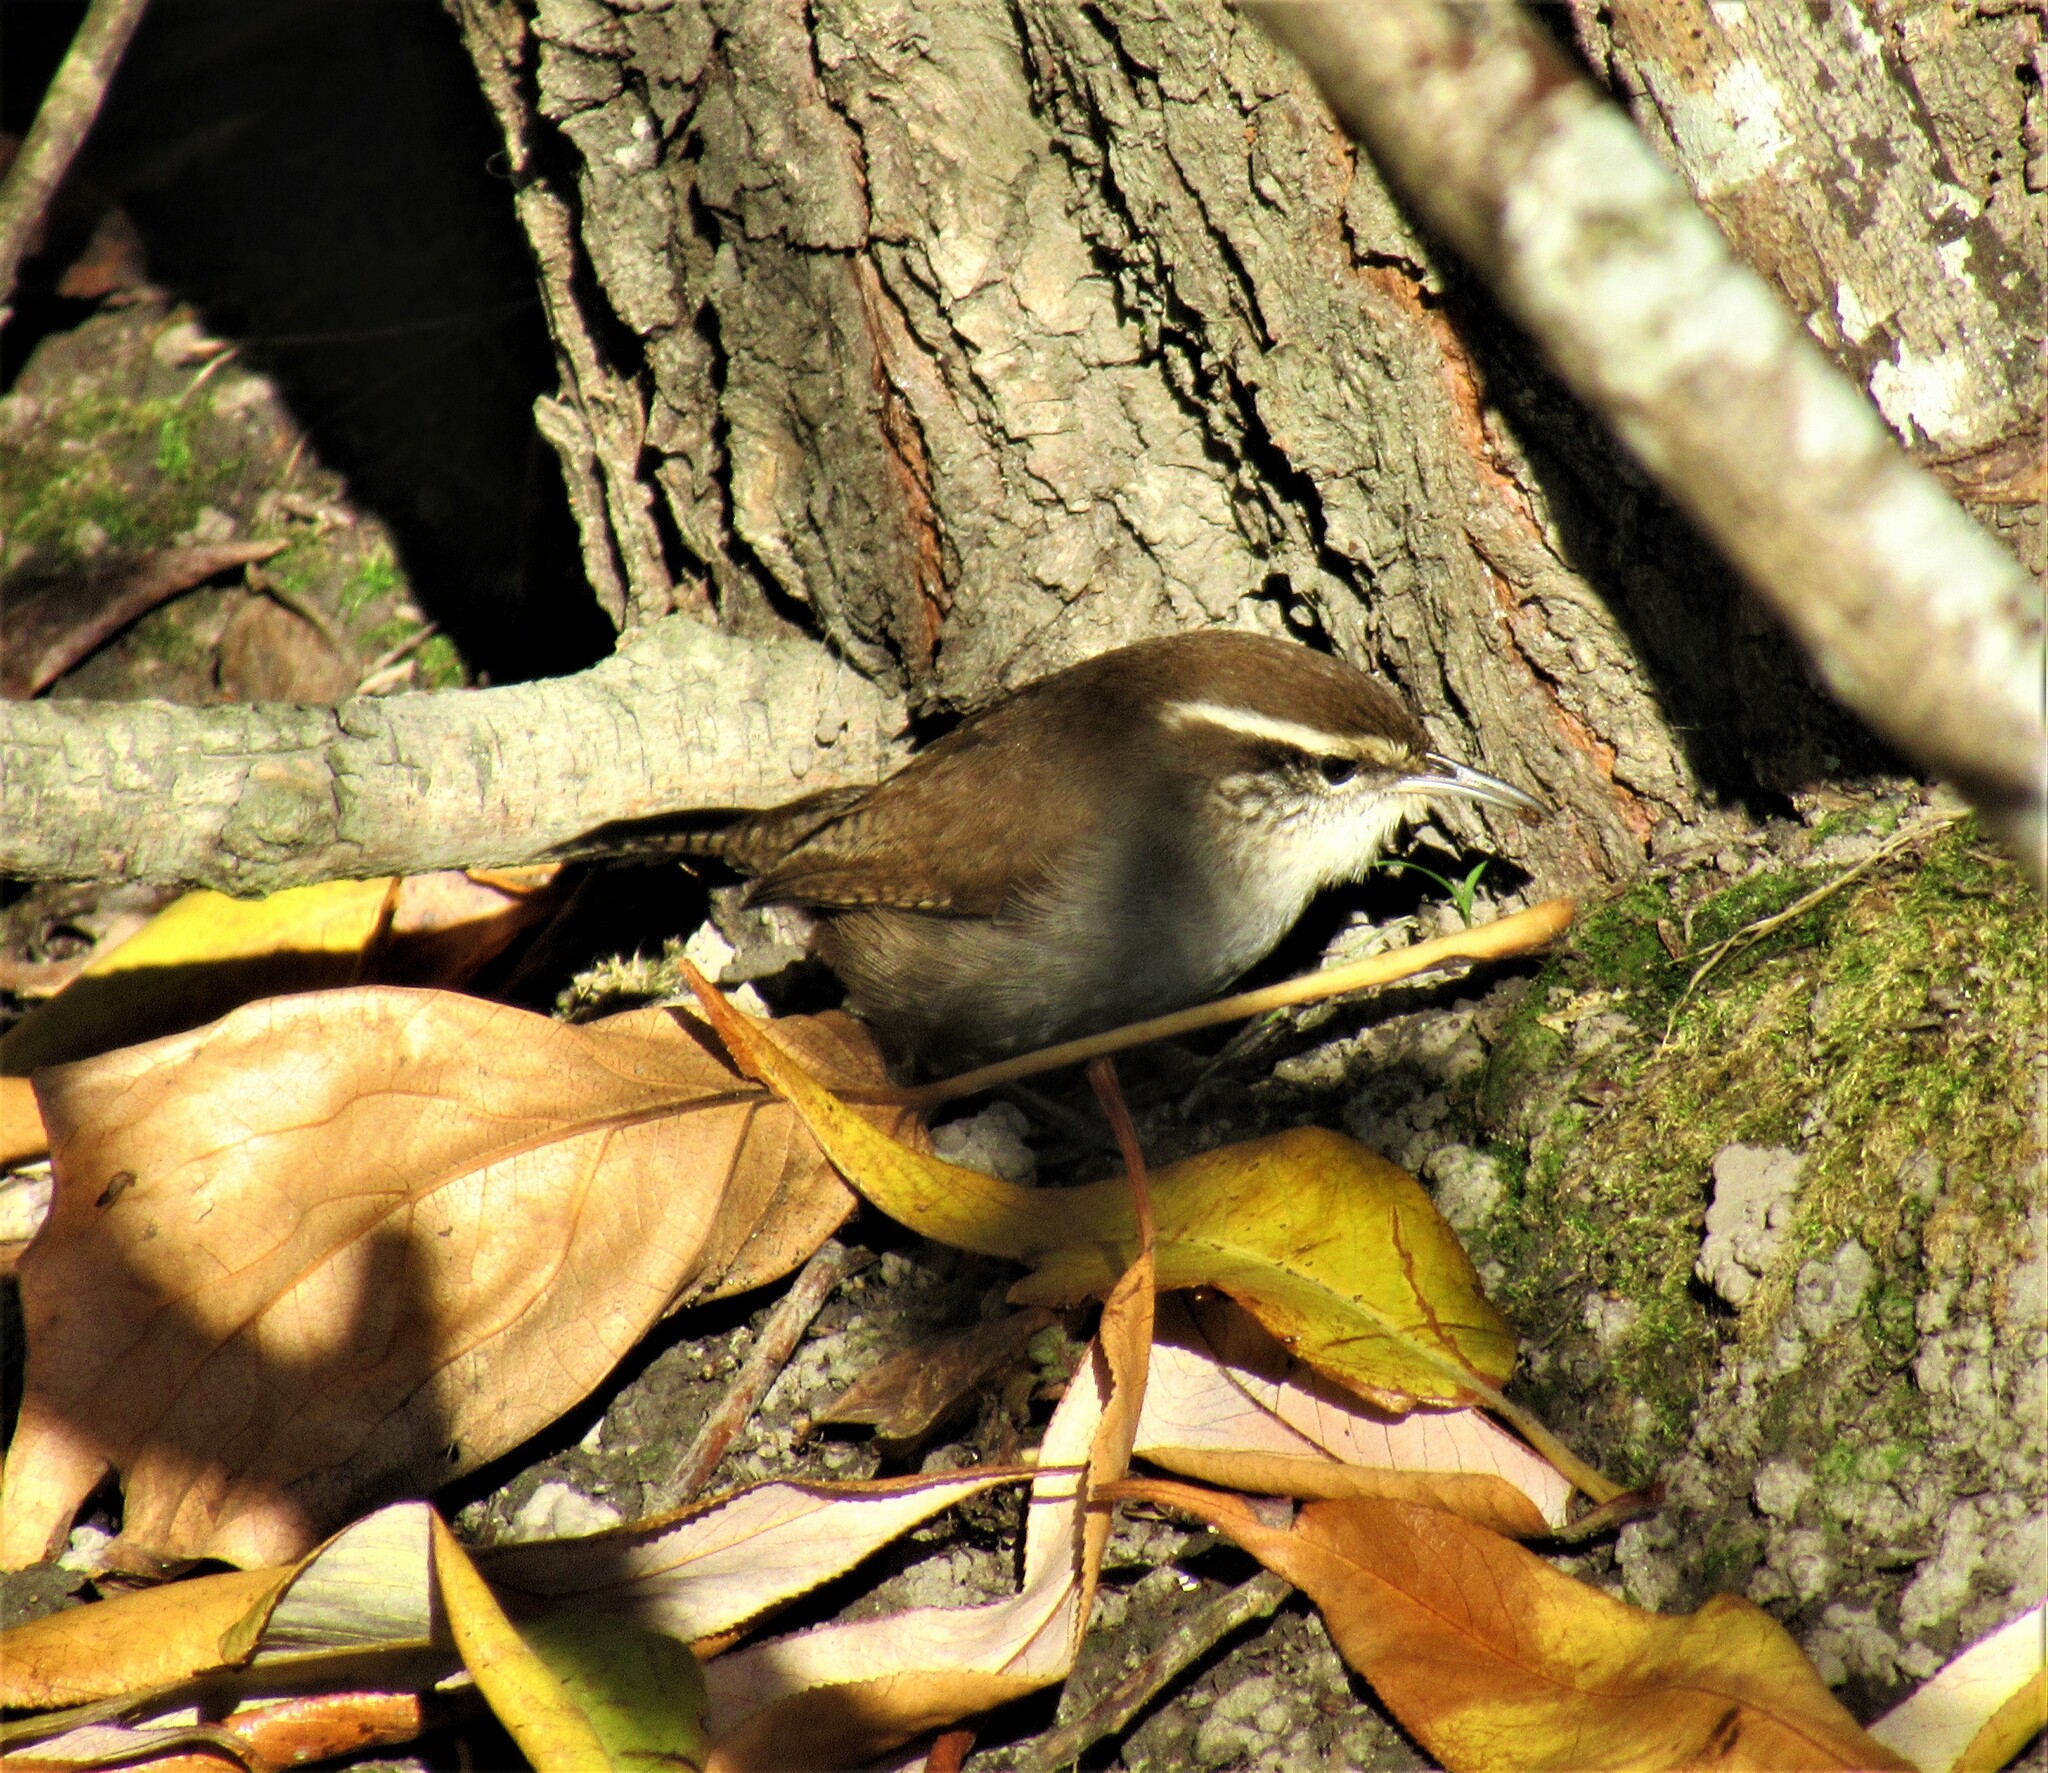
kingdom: Animalia
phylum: Chordata
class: Aves
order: Passeriformes
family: Troglodytidae
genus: Thryomanes
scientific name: Thryomanes bewickii
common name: Bewick's wren
